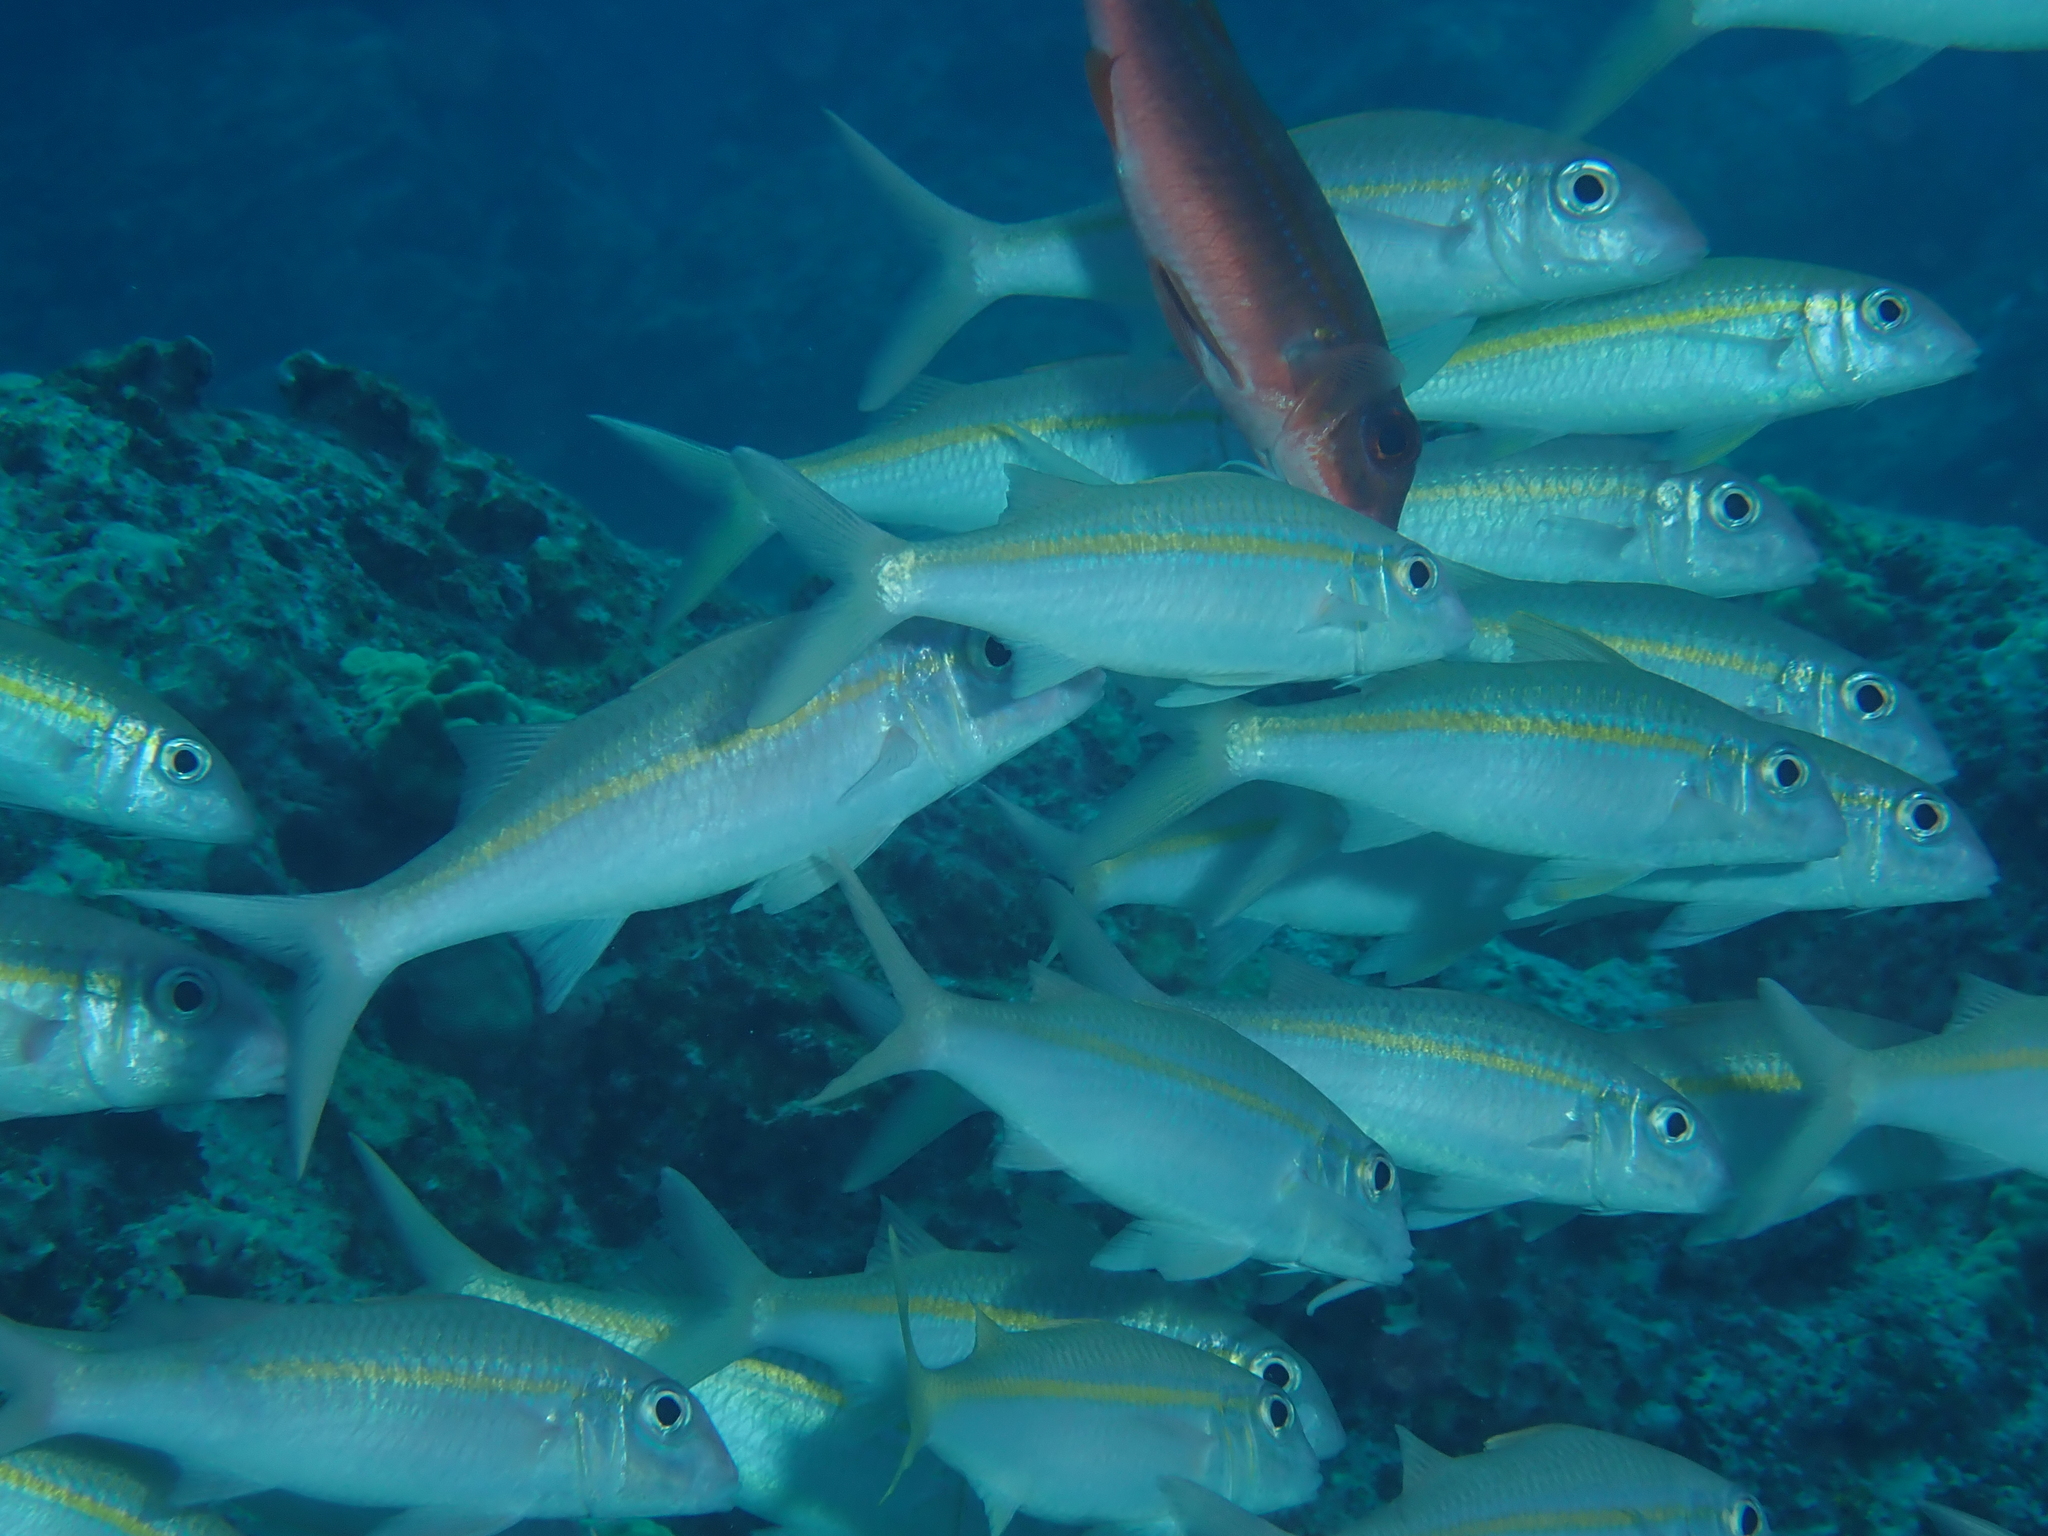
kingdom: Animalia
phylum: Chordata
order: Perciformes
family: Mullidae
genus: Mulloidichthys
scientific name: Mulloidichthys vanicolensis
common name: Yellowfin goatfish
